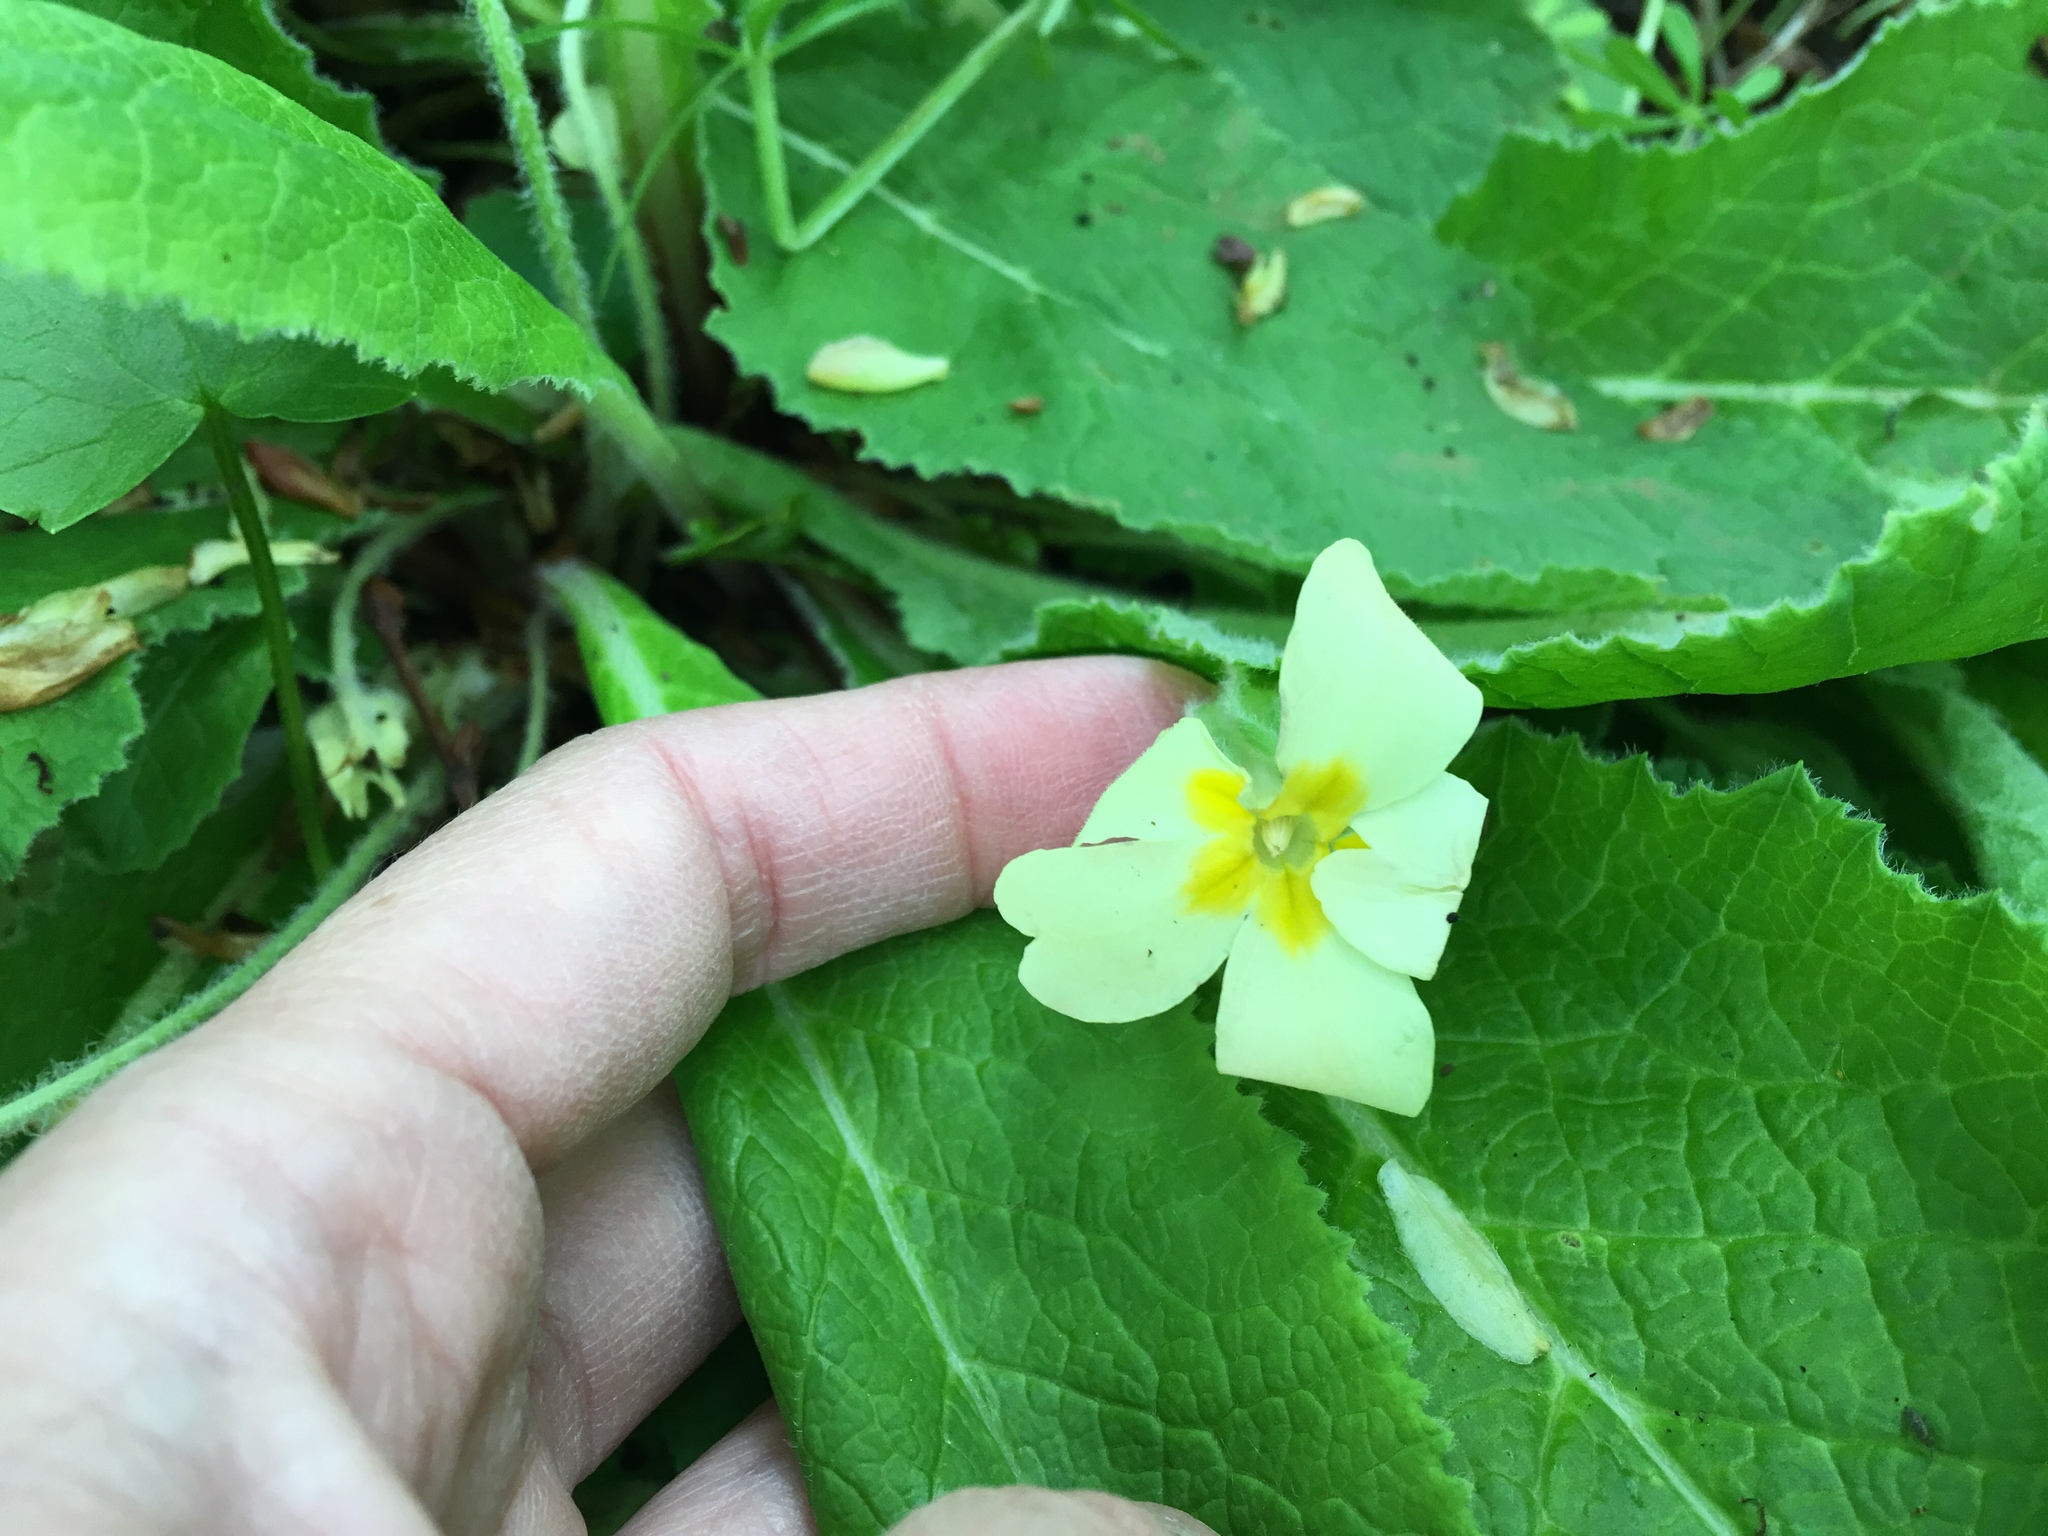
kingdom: Plantae
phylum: Tracheophyta
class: Magnoliopsida
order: Ericales
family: Primulaceae
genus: Primula
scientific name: Primula vulgaris
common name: Primrose
